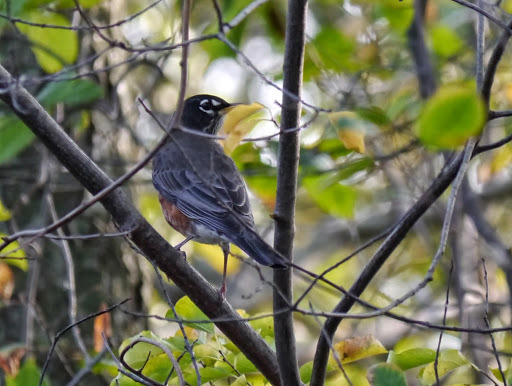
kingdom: Animalia
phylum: Chordata
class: Aves
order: Passeriformes
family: Turdidae
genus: Turdus
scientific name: Turdus migratorius
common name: American robin
